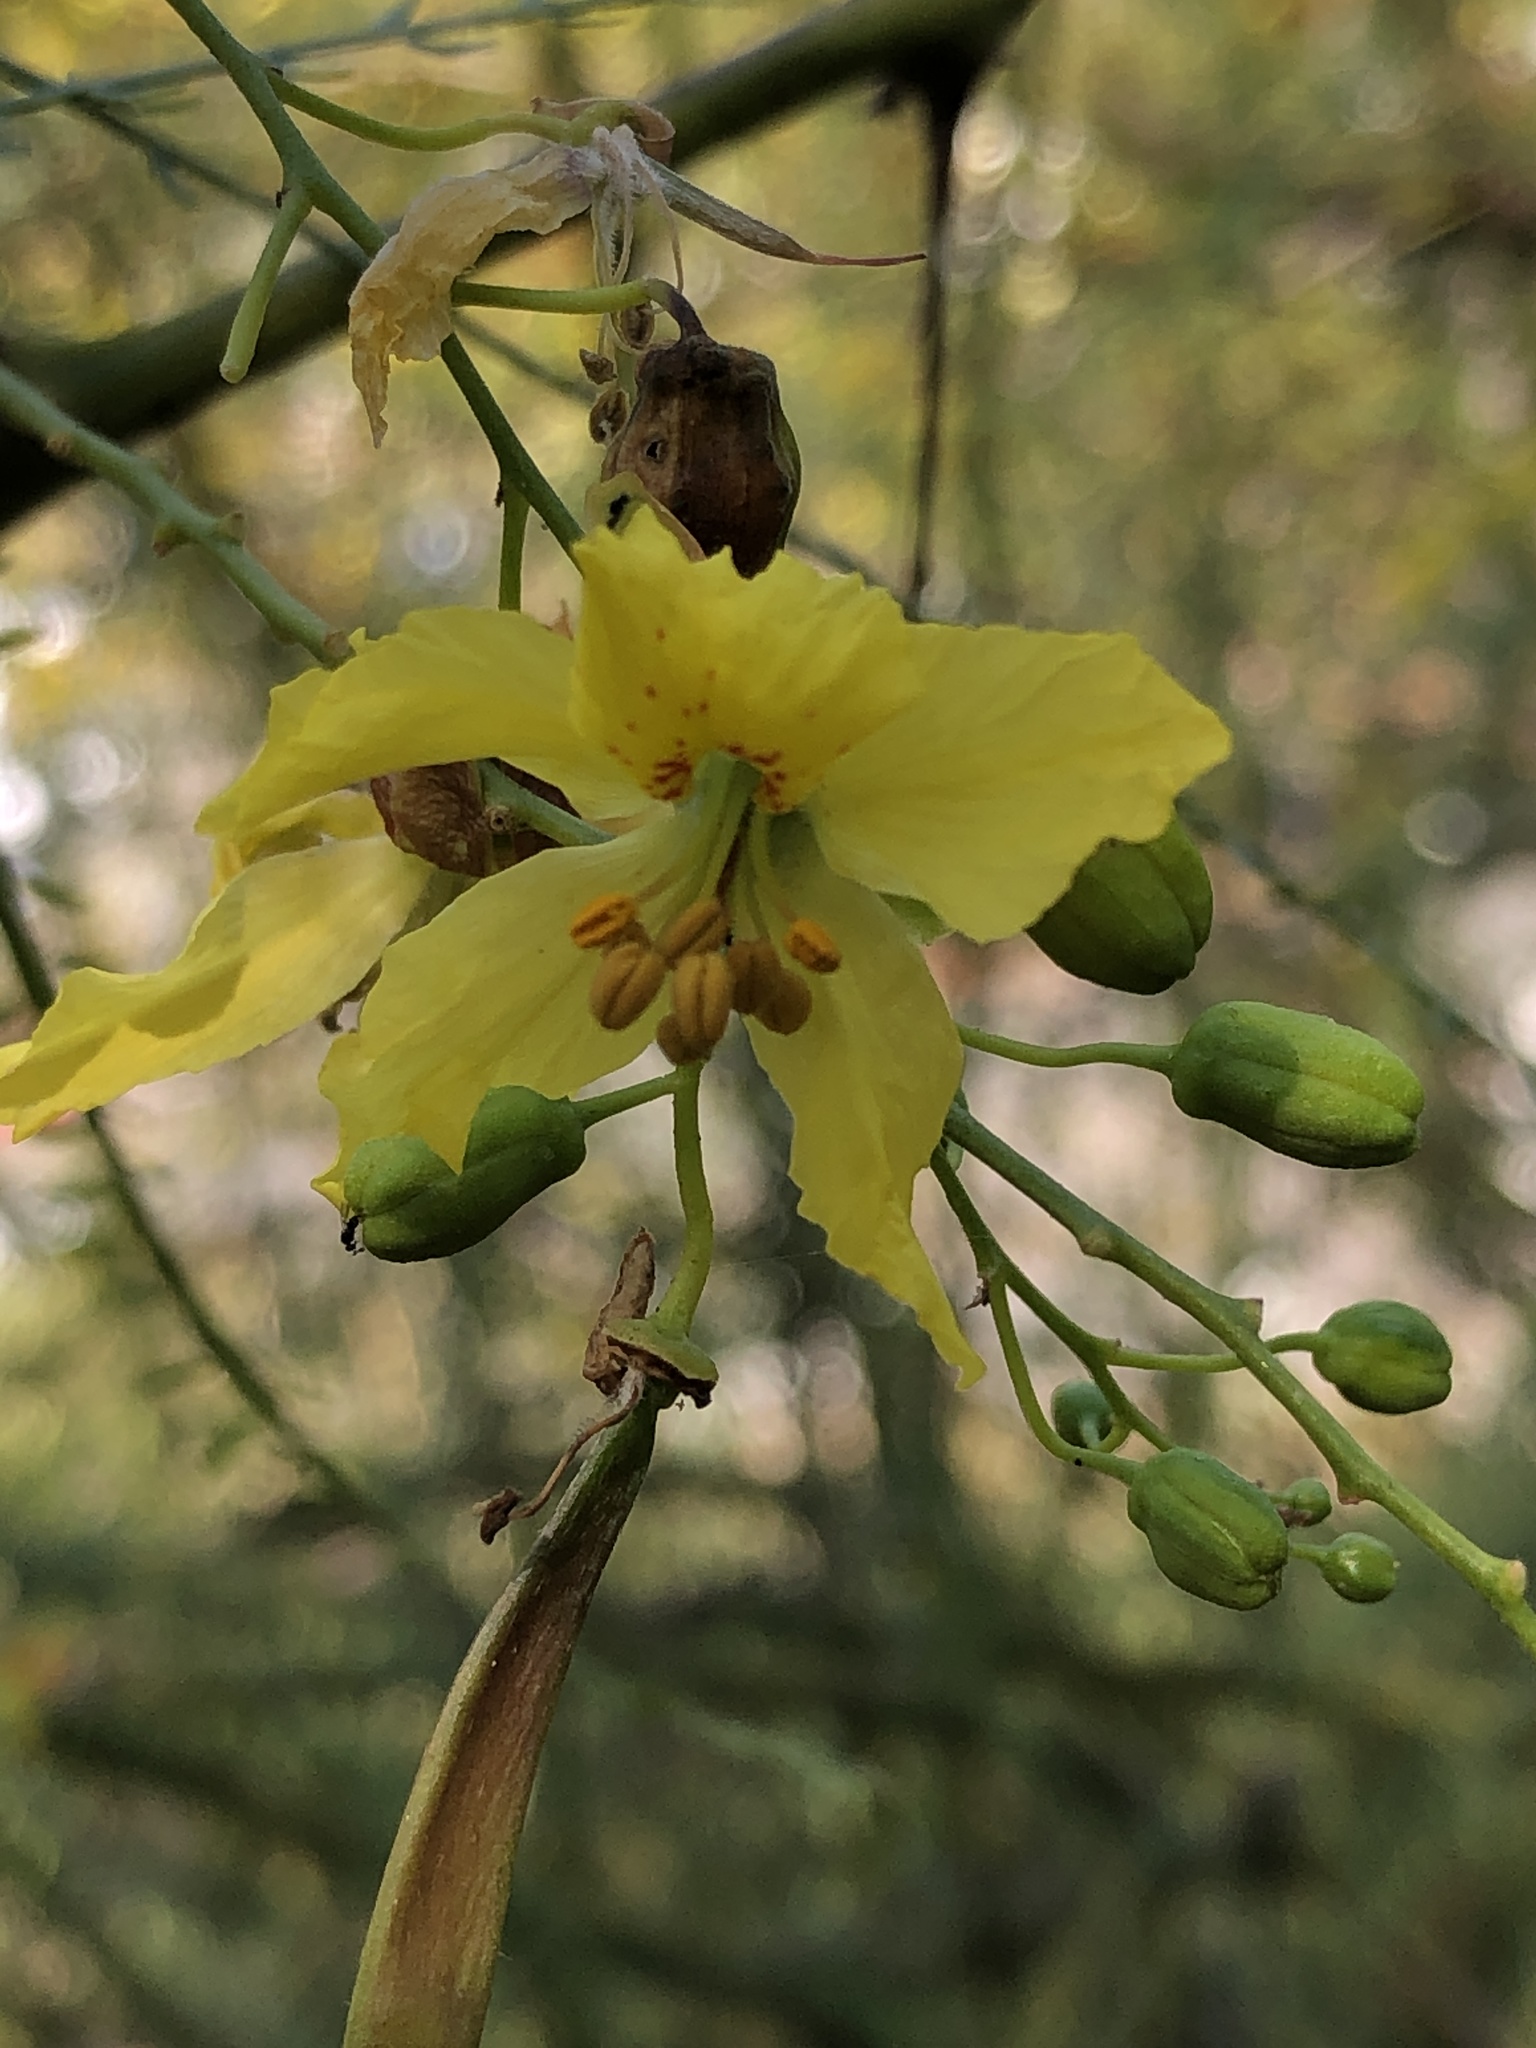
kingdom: Plantae
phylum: Tracheophyta
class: Magnoliopsida
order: Fabales
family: Fabaceae
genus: Parkinsonia
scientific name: Parkinsonia aculeata
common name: Jerusalem thorn
